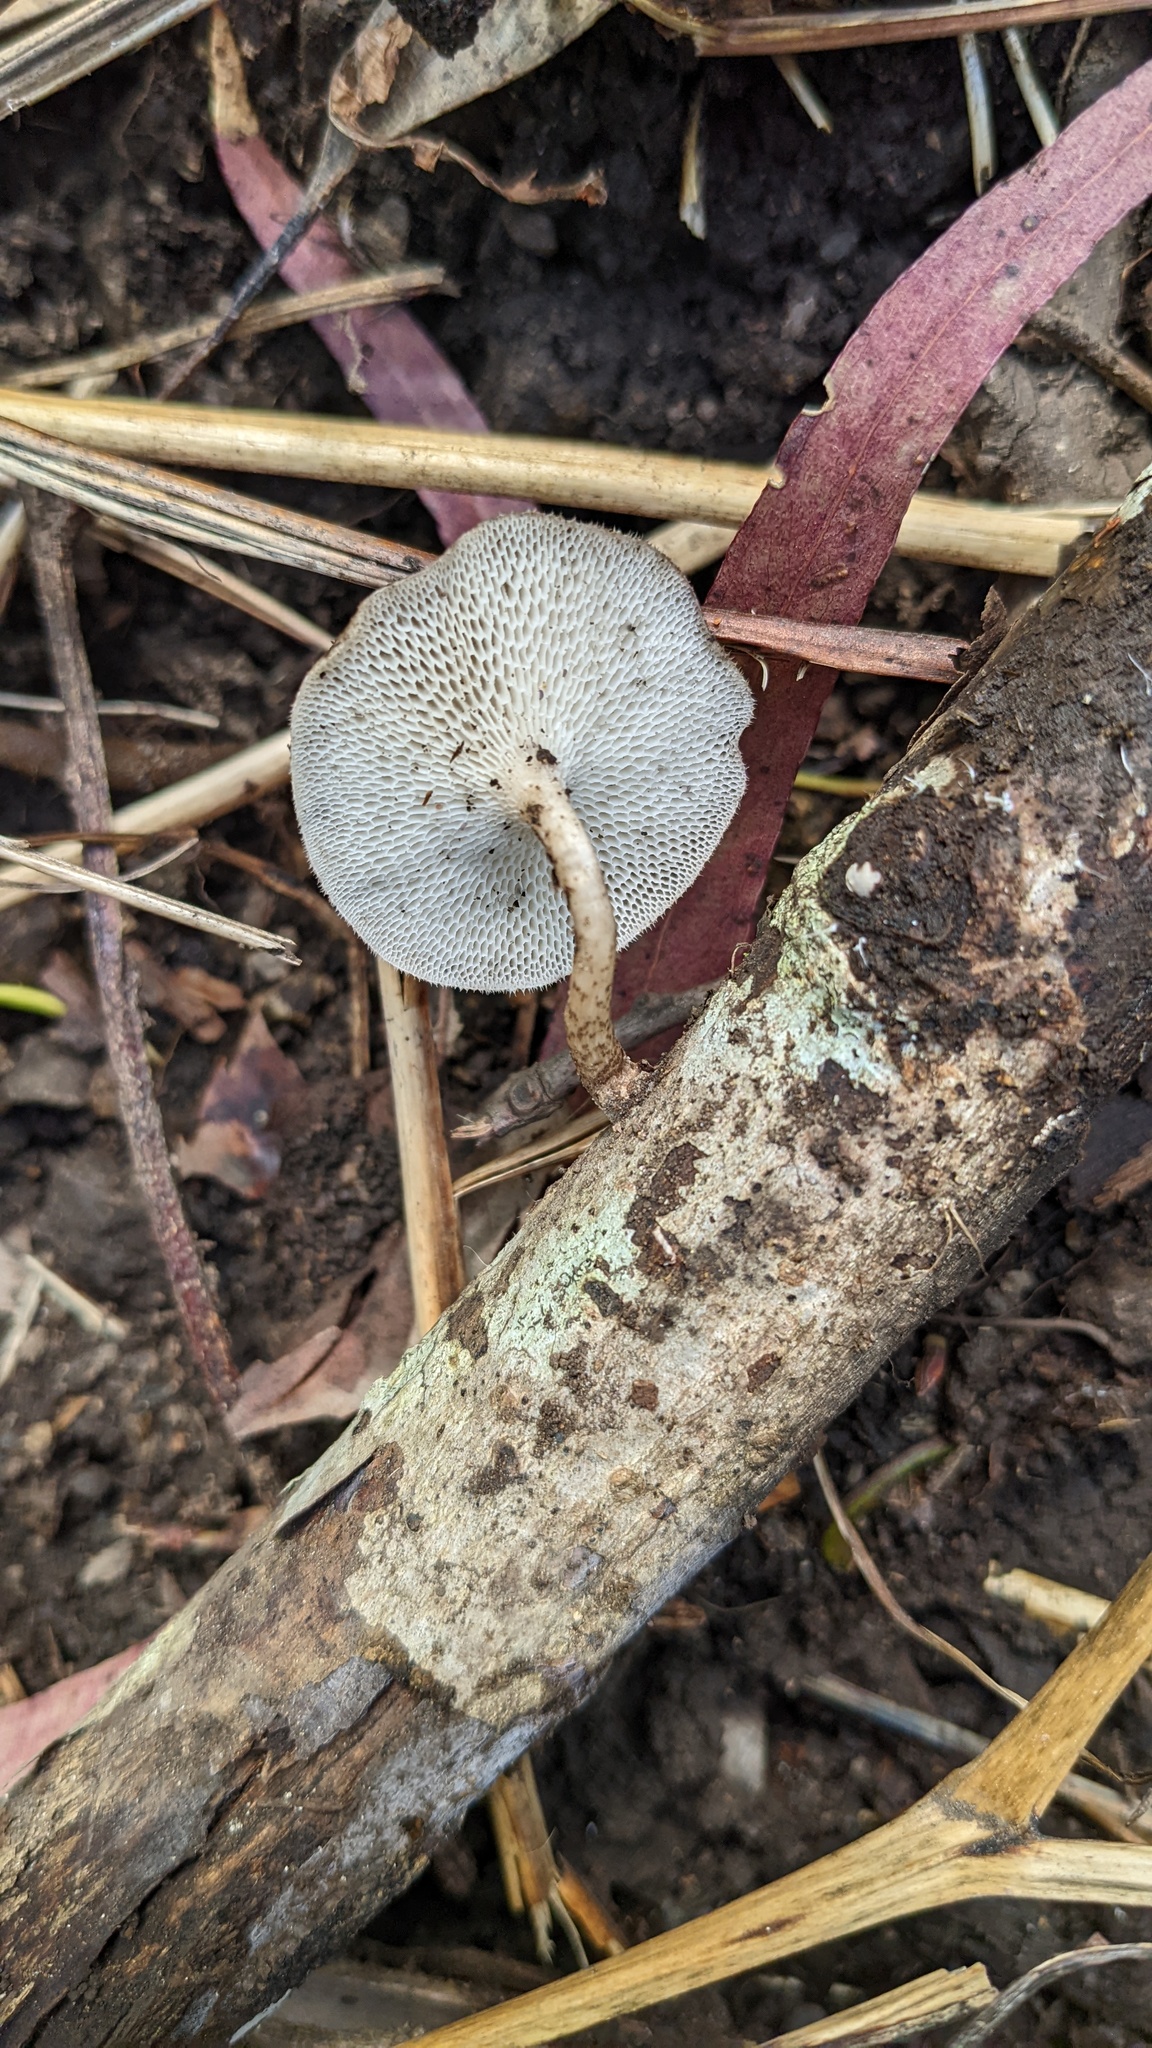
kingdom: Fungi
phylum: Basidiomycota
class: Agaricomycetes
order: Polyporales
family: Polyporaceae
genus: Lentinus
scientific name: Lentinus arcularius
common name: Spring polypore
